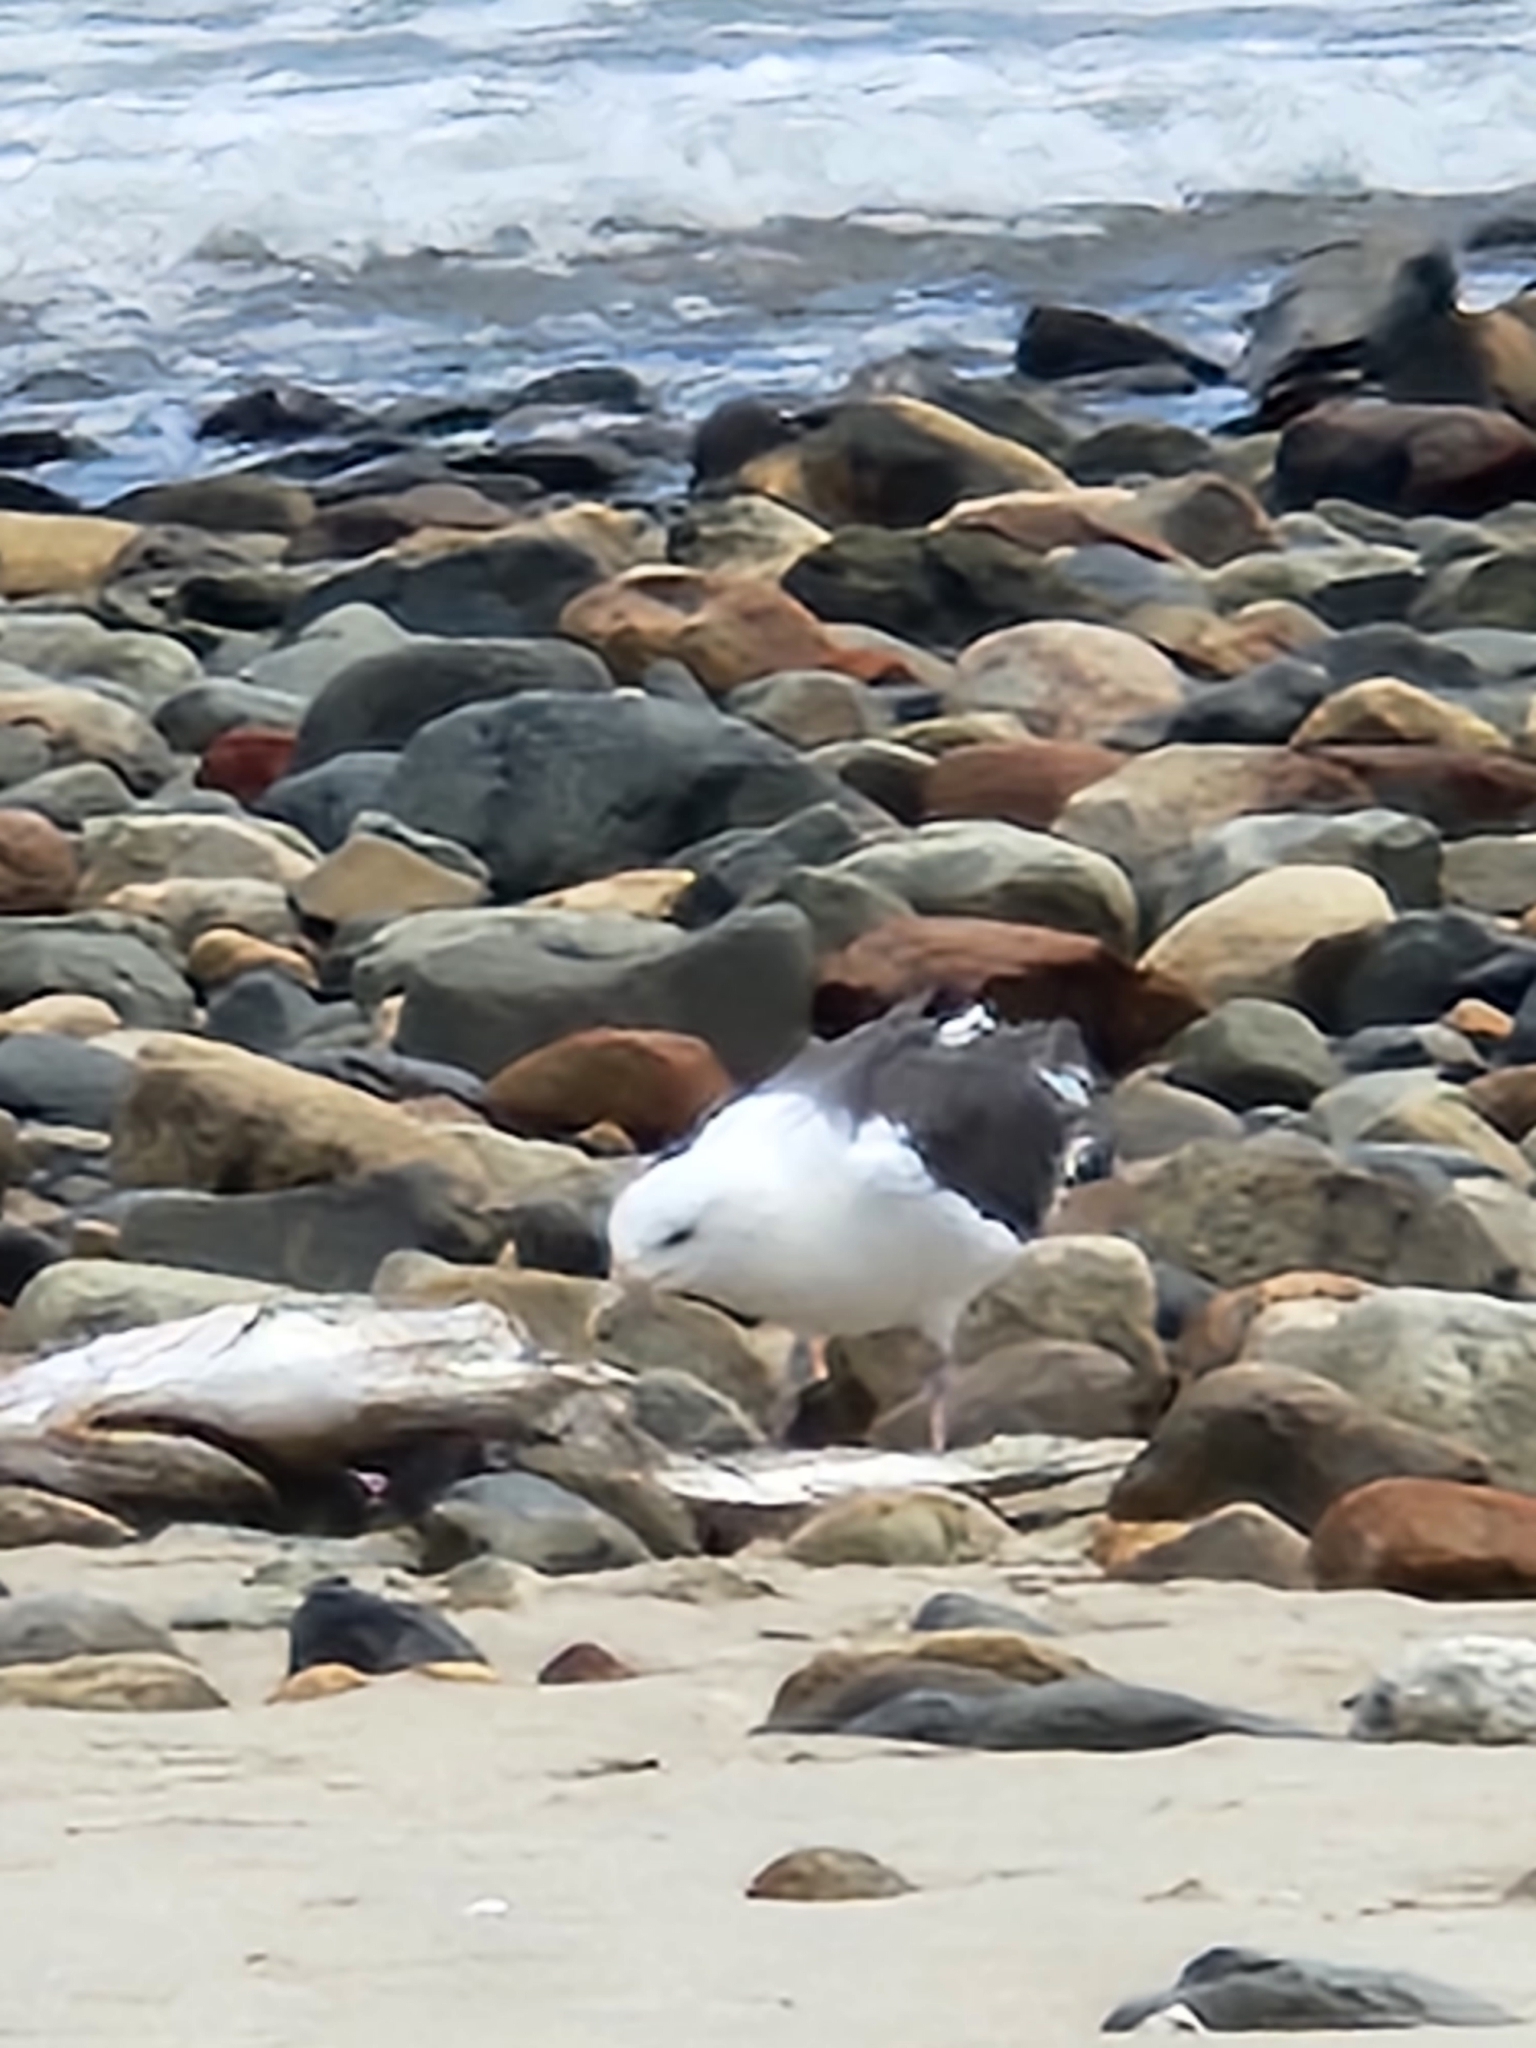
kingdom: Animalia
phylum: Chordata
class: Aves
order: Charadriiformes
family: Laridae
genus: Larus
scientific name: Larus marinus
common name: Great black-backed gull
